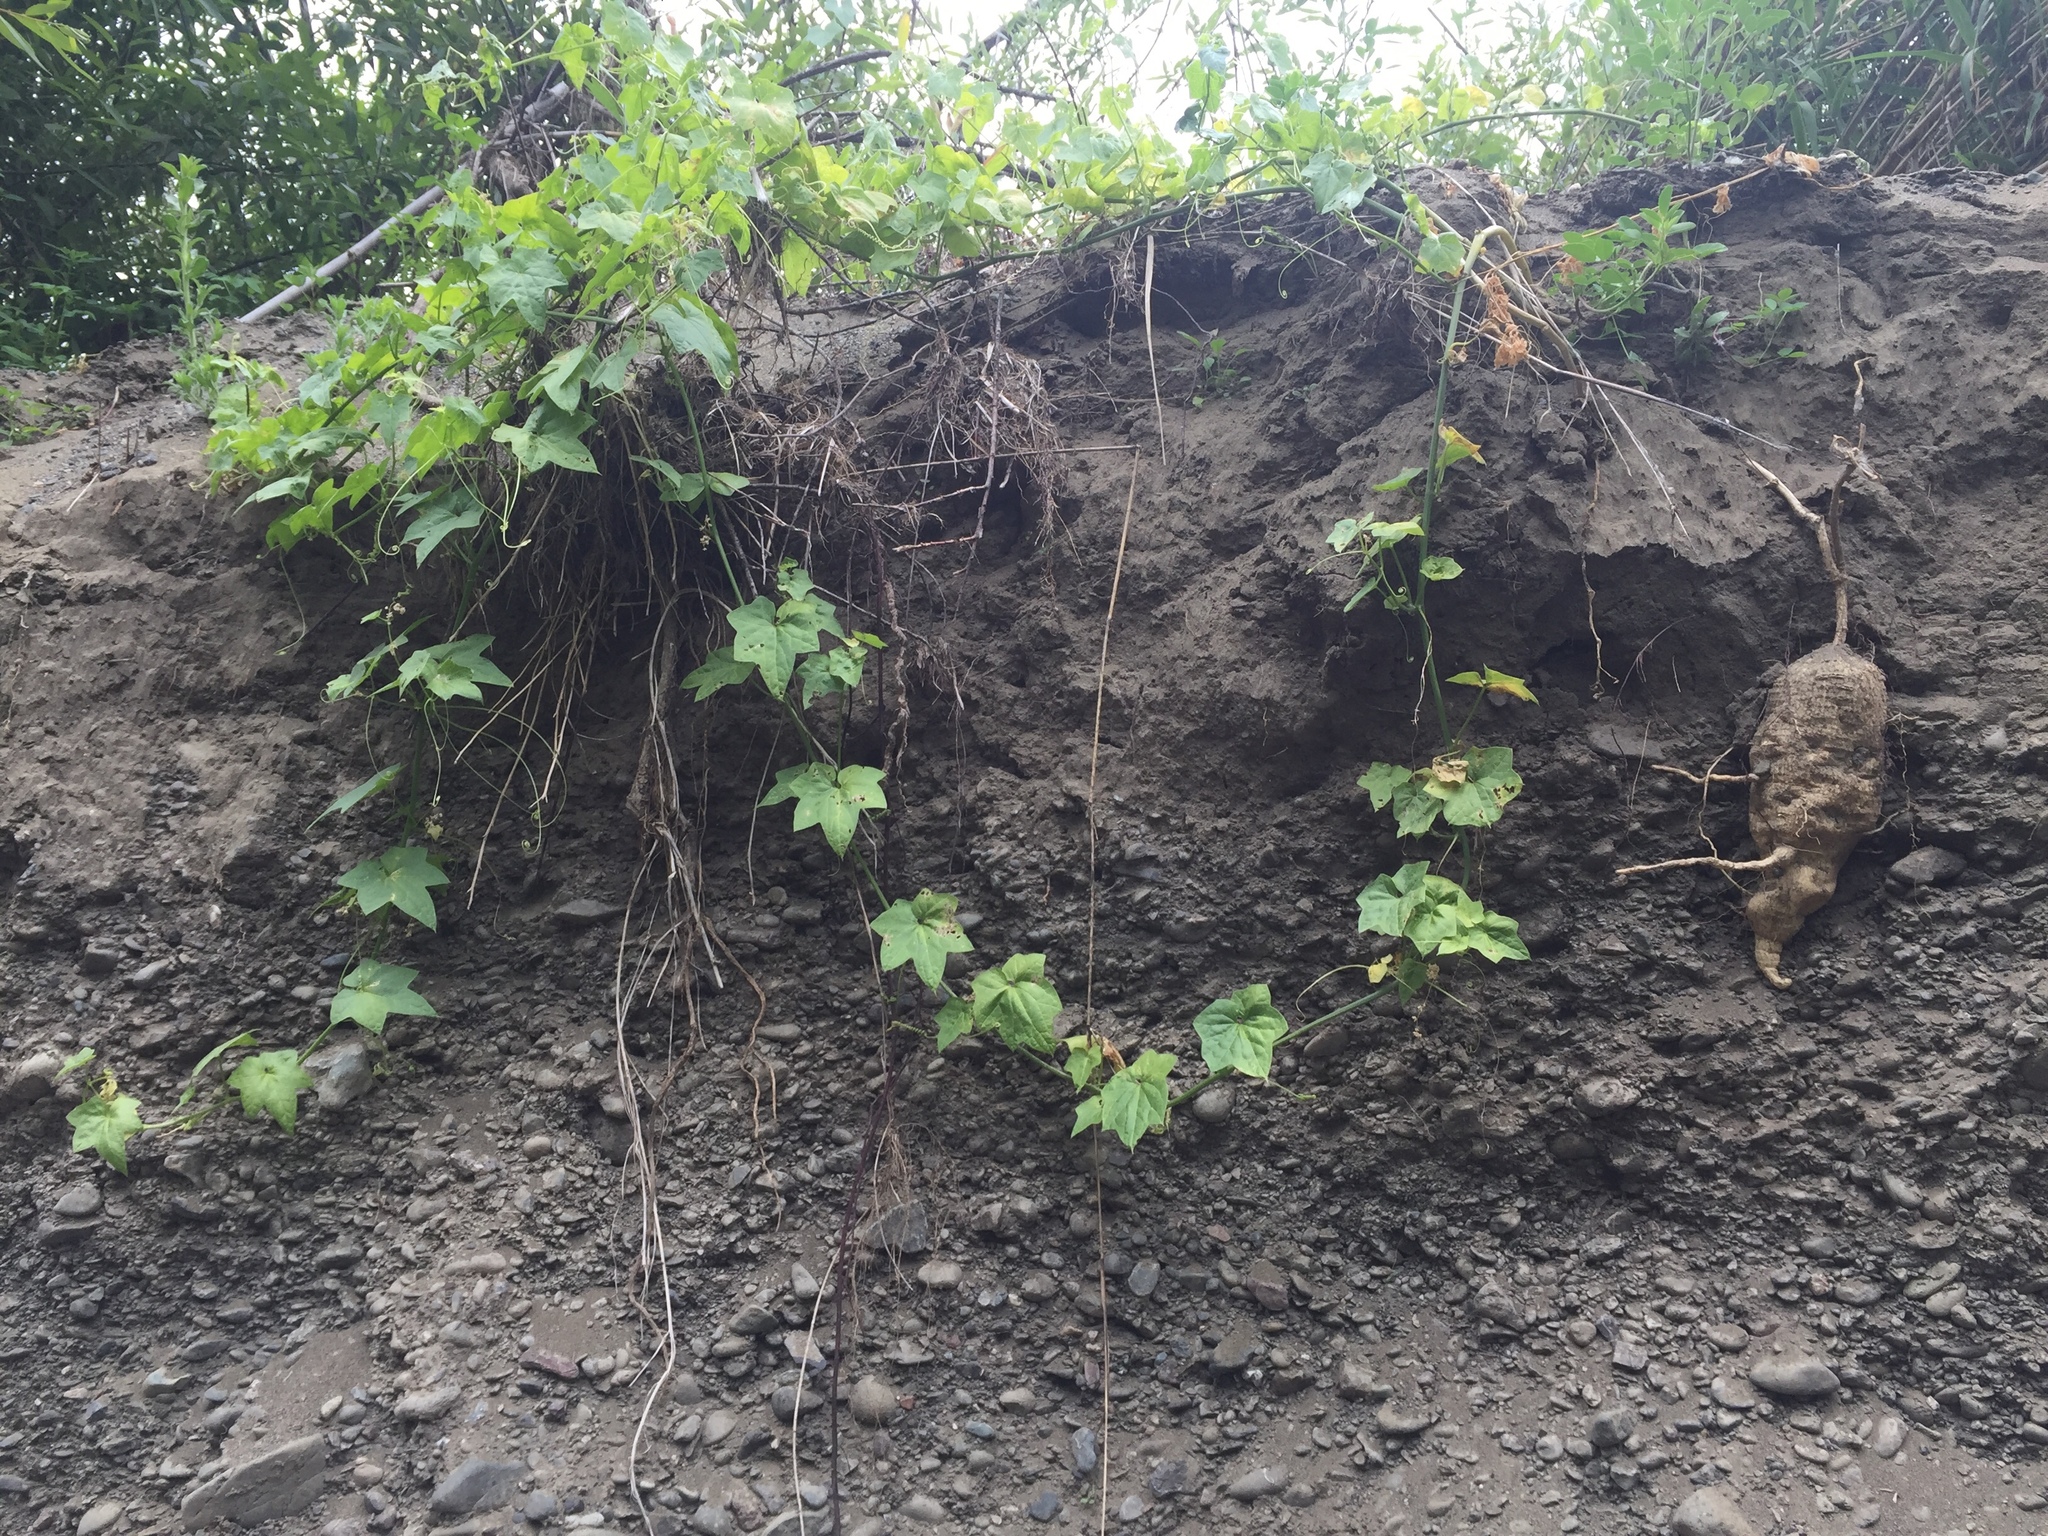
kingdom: Plantae
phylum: Tracheophyta
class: Magnoliopsida
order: Cucurbitales
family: Cucurbitaceae
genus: Marah
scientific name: Marah fabacea
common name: California manroot
